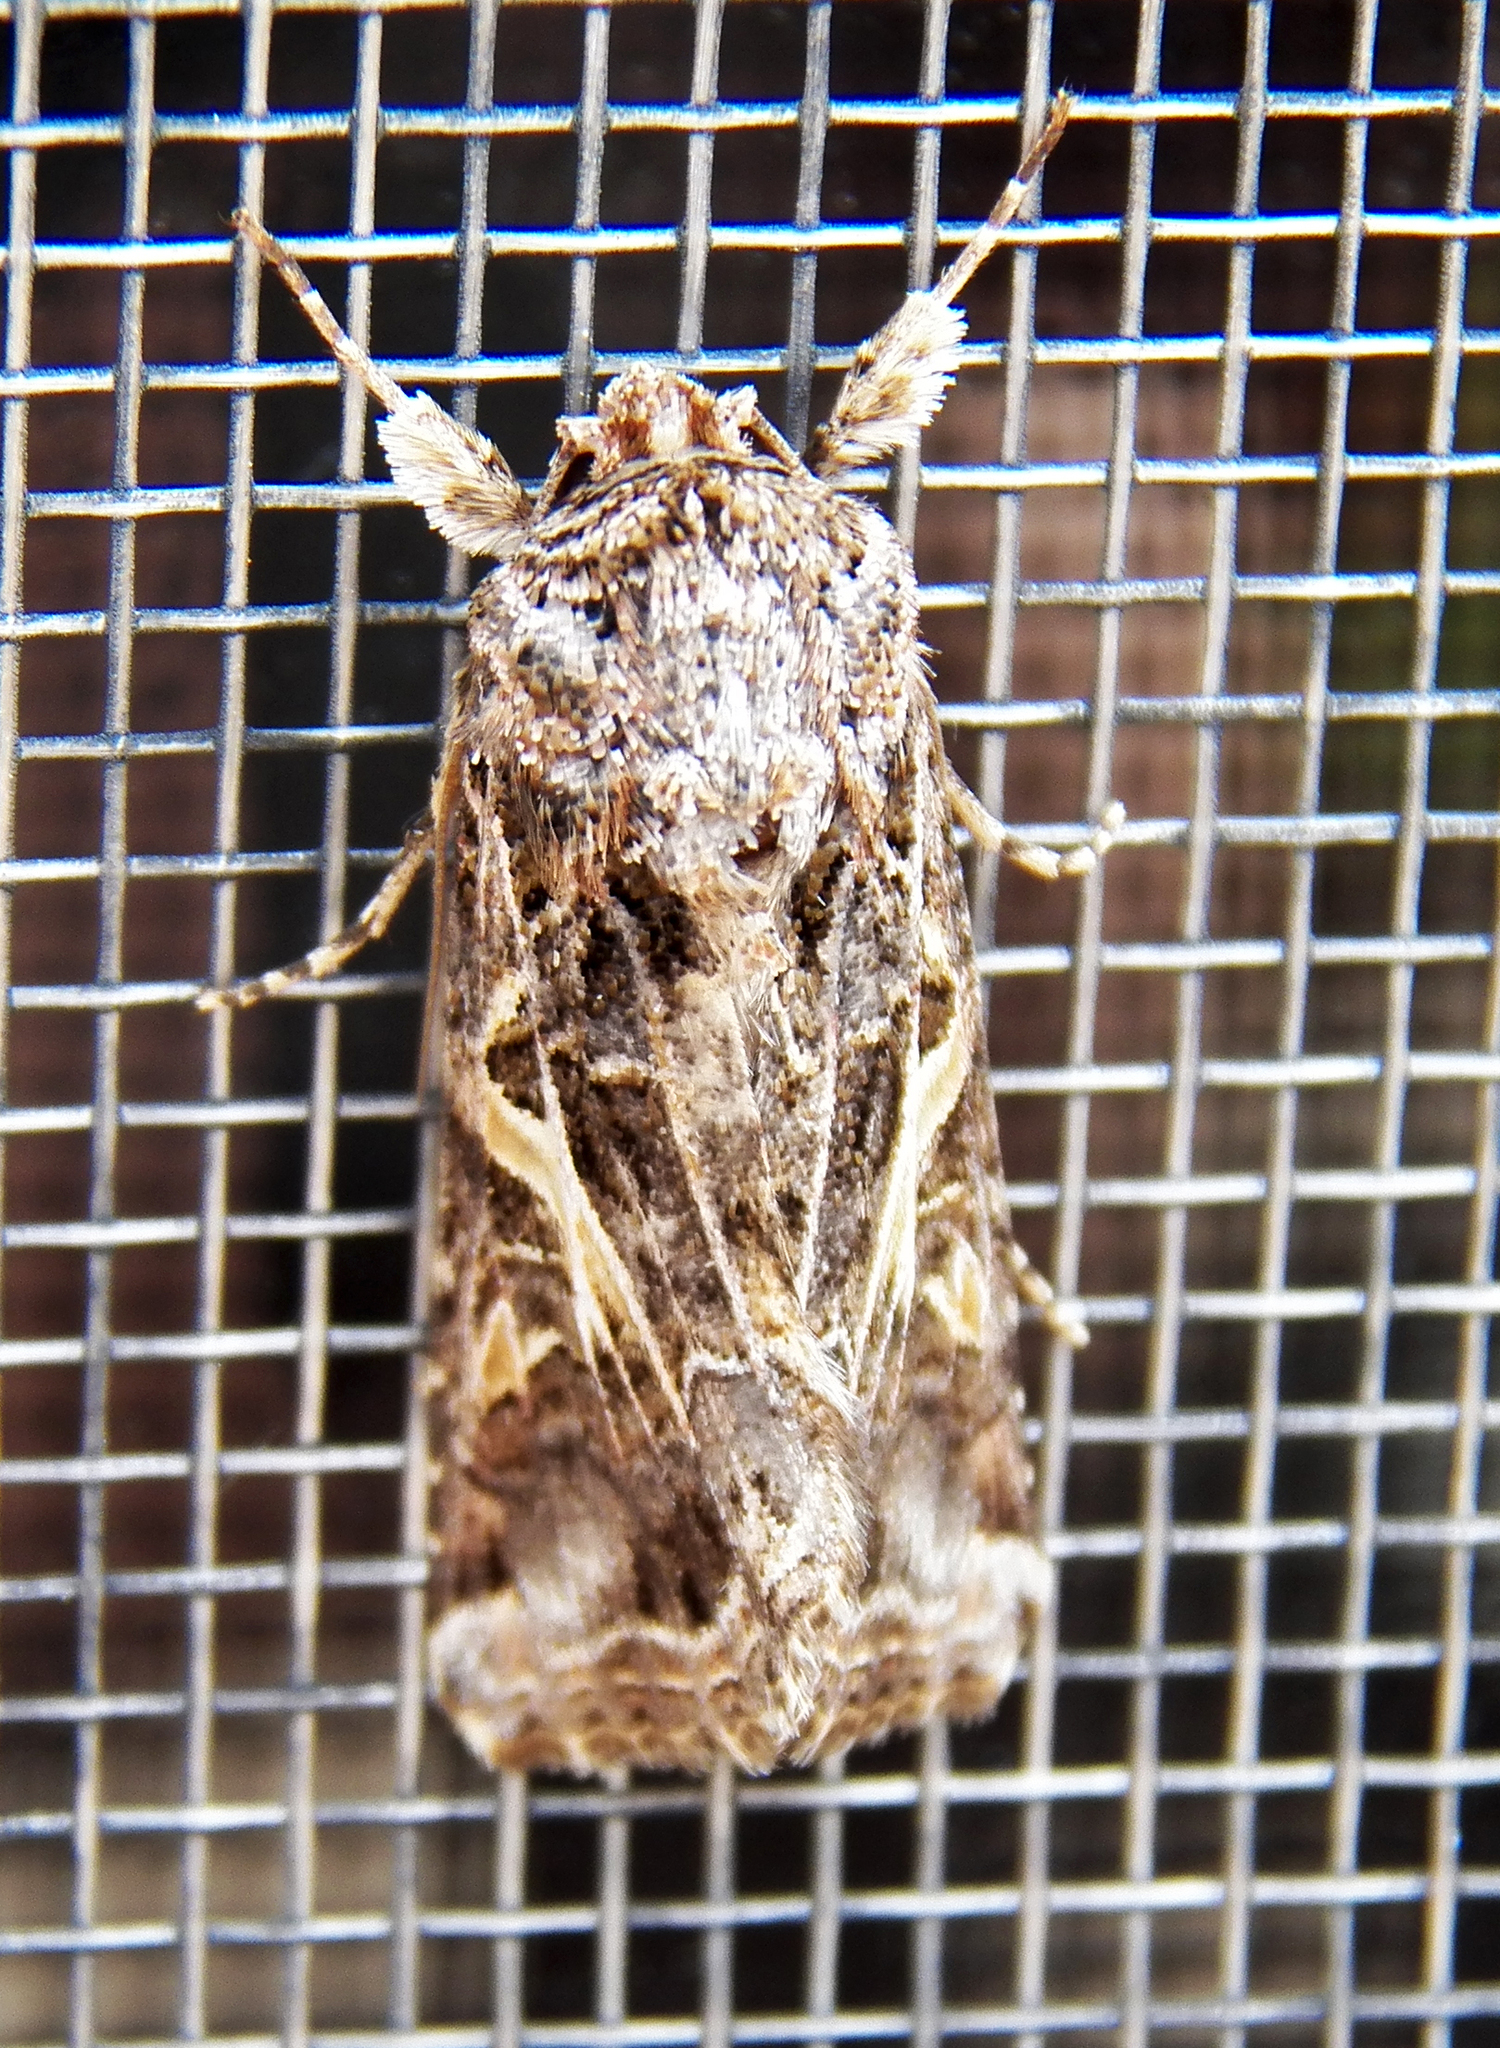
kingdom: Animalia
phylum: Arthropoda
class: Insecta
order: Lepidoptera
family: Noctuidae
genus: Spodoptera
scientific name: Spodoptera ornithogalli
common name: Yellow-striped armyworm
